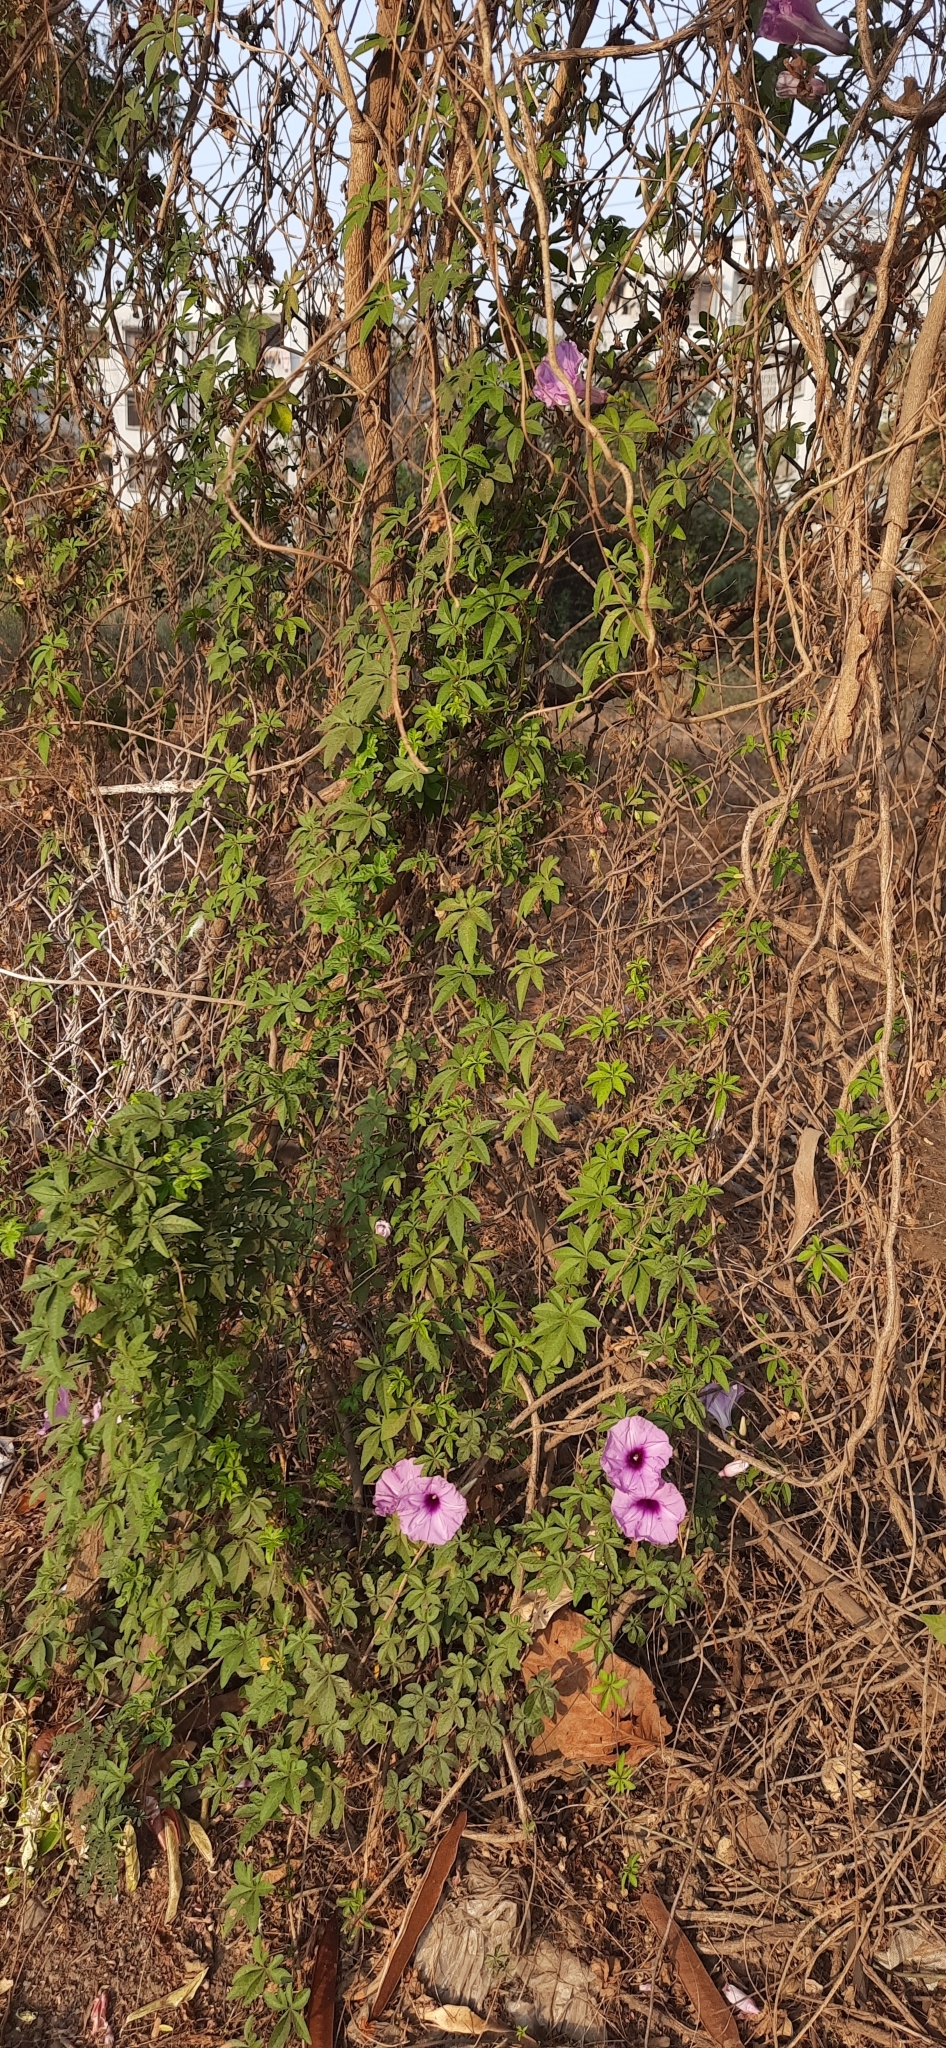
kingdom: Plantae
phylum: Tracheophyta
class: Magnoliopsida
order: Solanales
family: Convolvulaceae
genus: Ipomoea
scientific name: Ipomoea cairica
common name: Mile a minute vine
